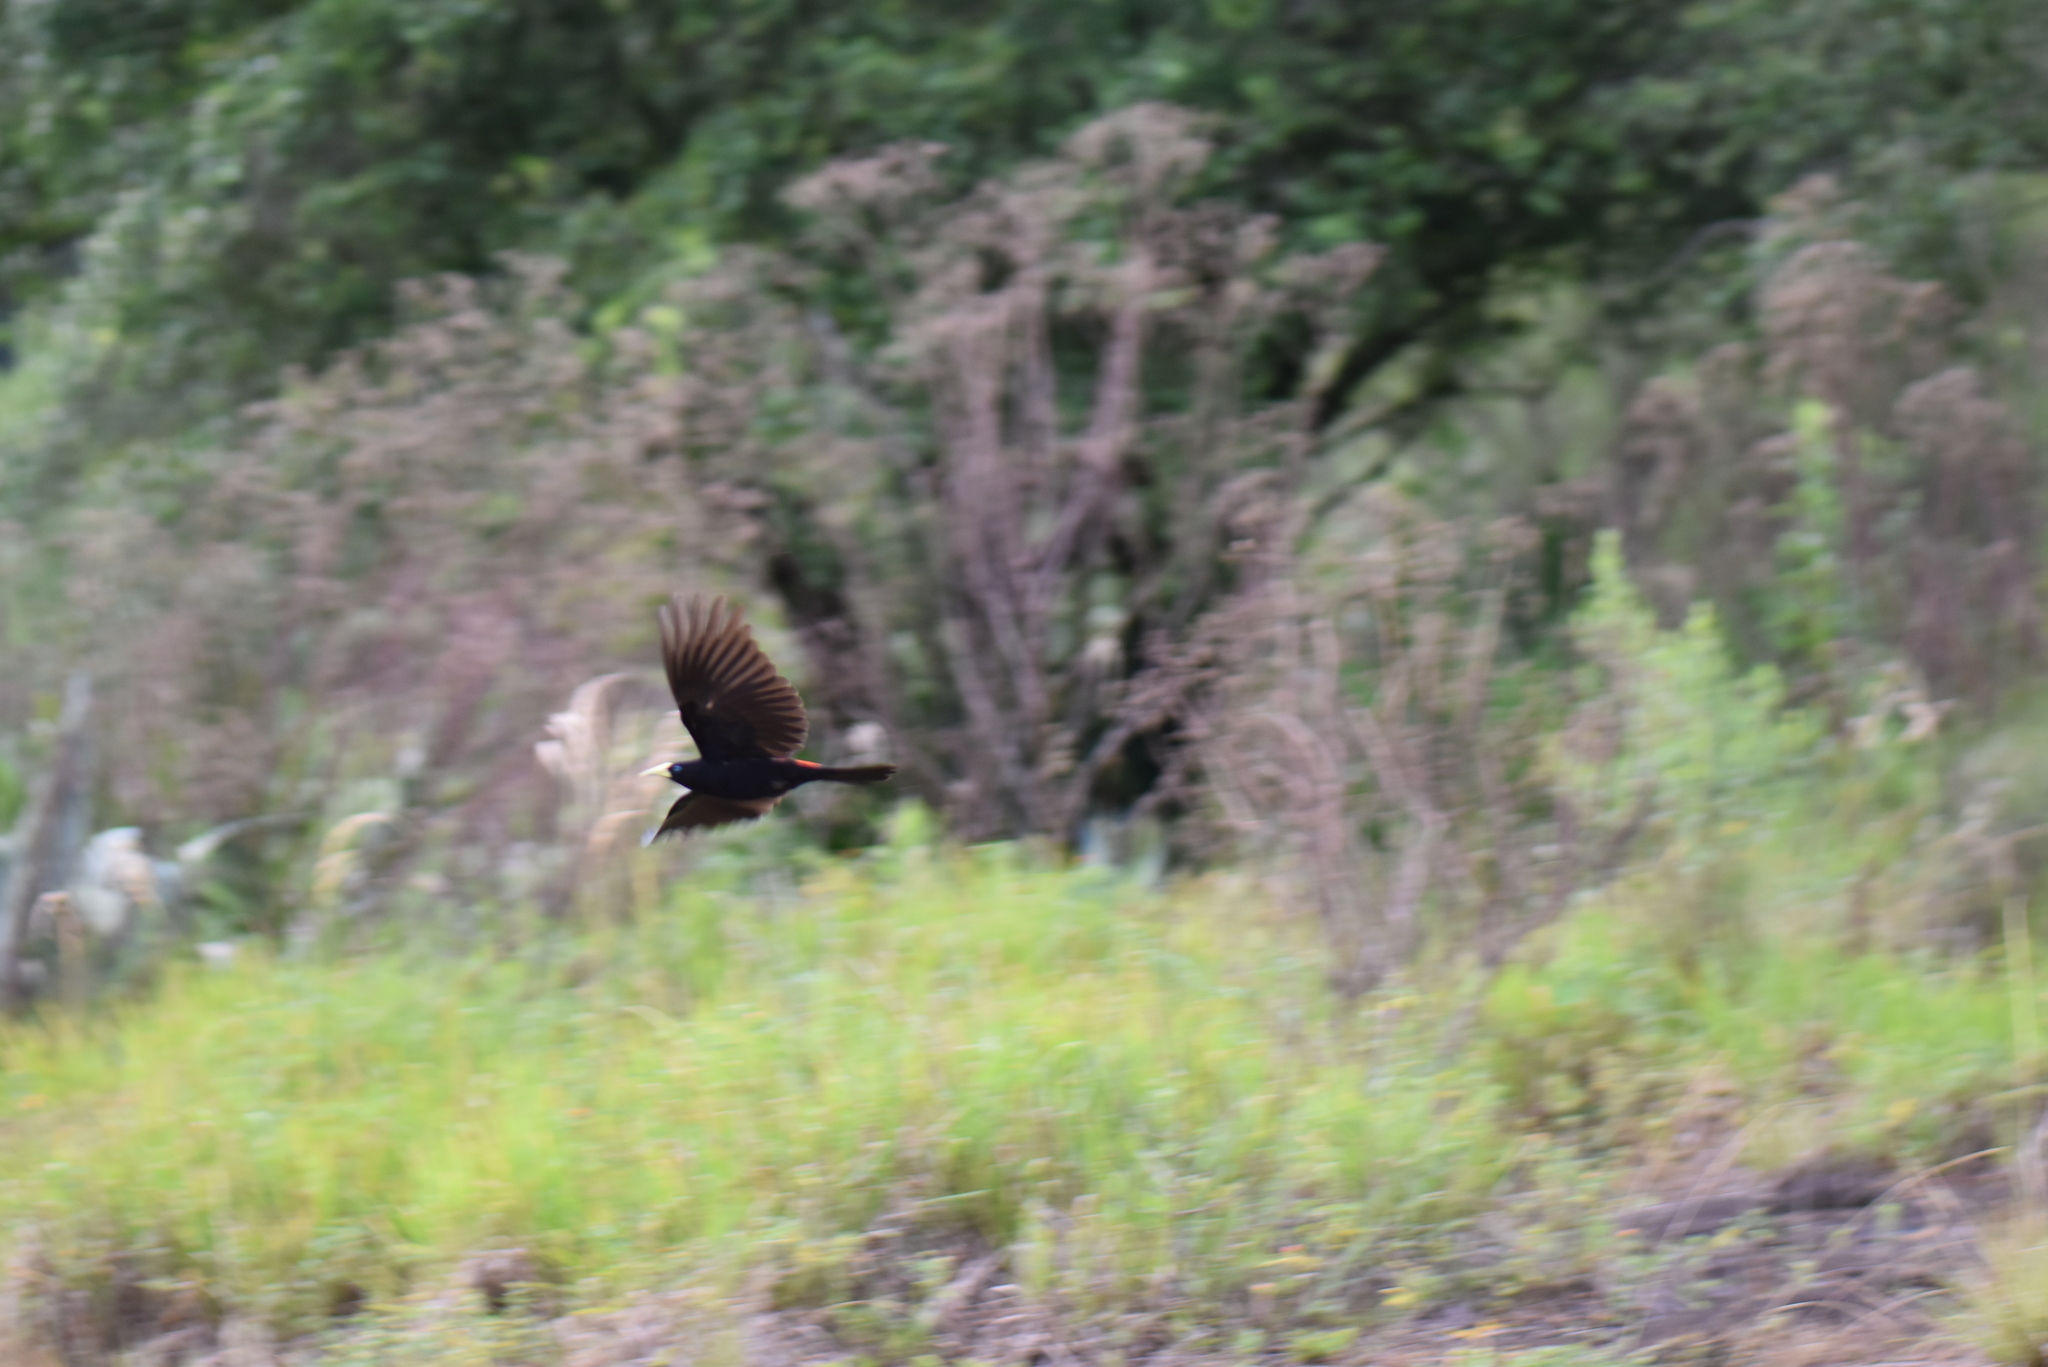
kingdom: Animalia
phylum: Chordata
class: Aves
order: Passeriformes
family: Icteridae
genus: Cacicus
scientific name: Cacicus haemorrhous
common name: Red-rumped cacique
